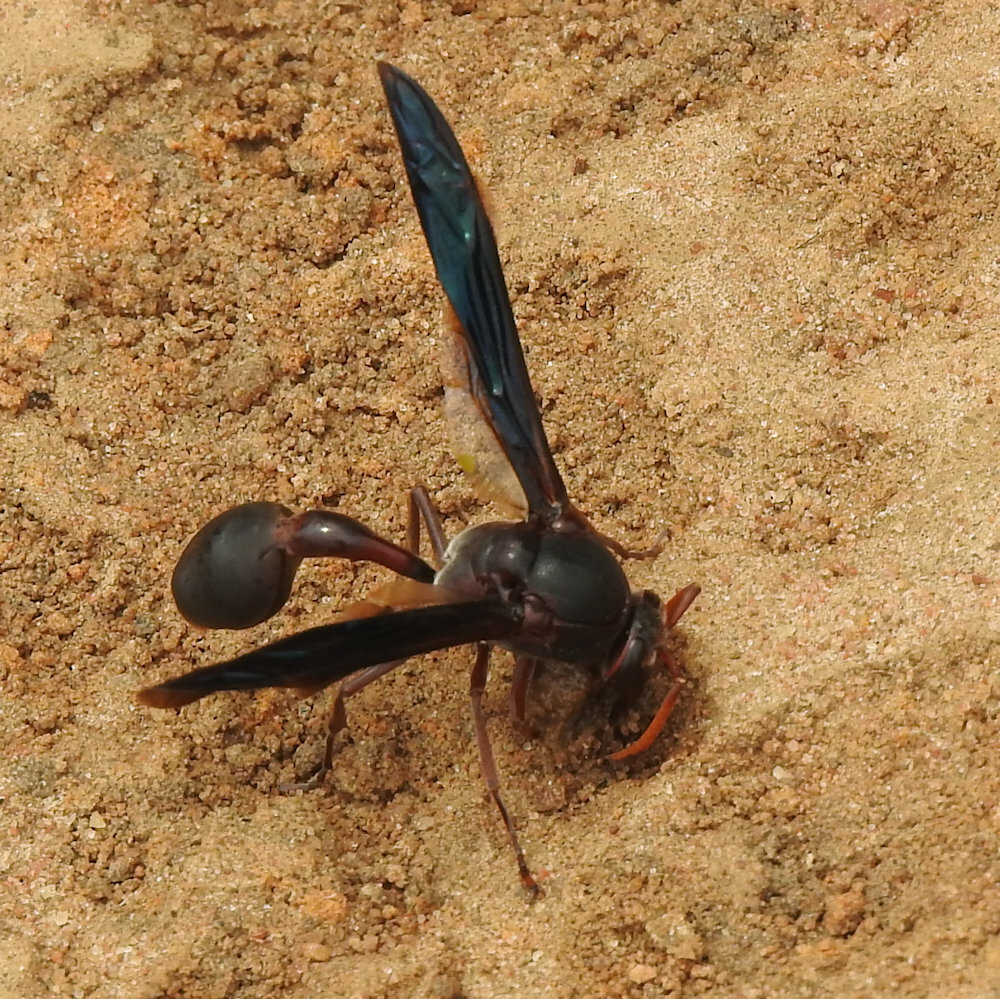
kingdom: Animalia
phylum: Arthropoda
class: Insecta
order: Hymenoptera
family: Eumenidae
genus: Delta
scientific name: Delta emarginatum
